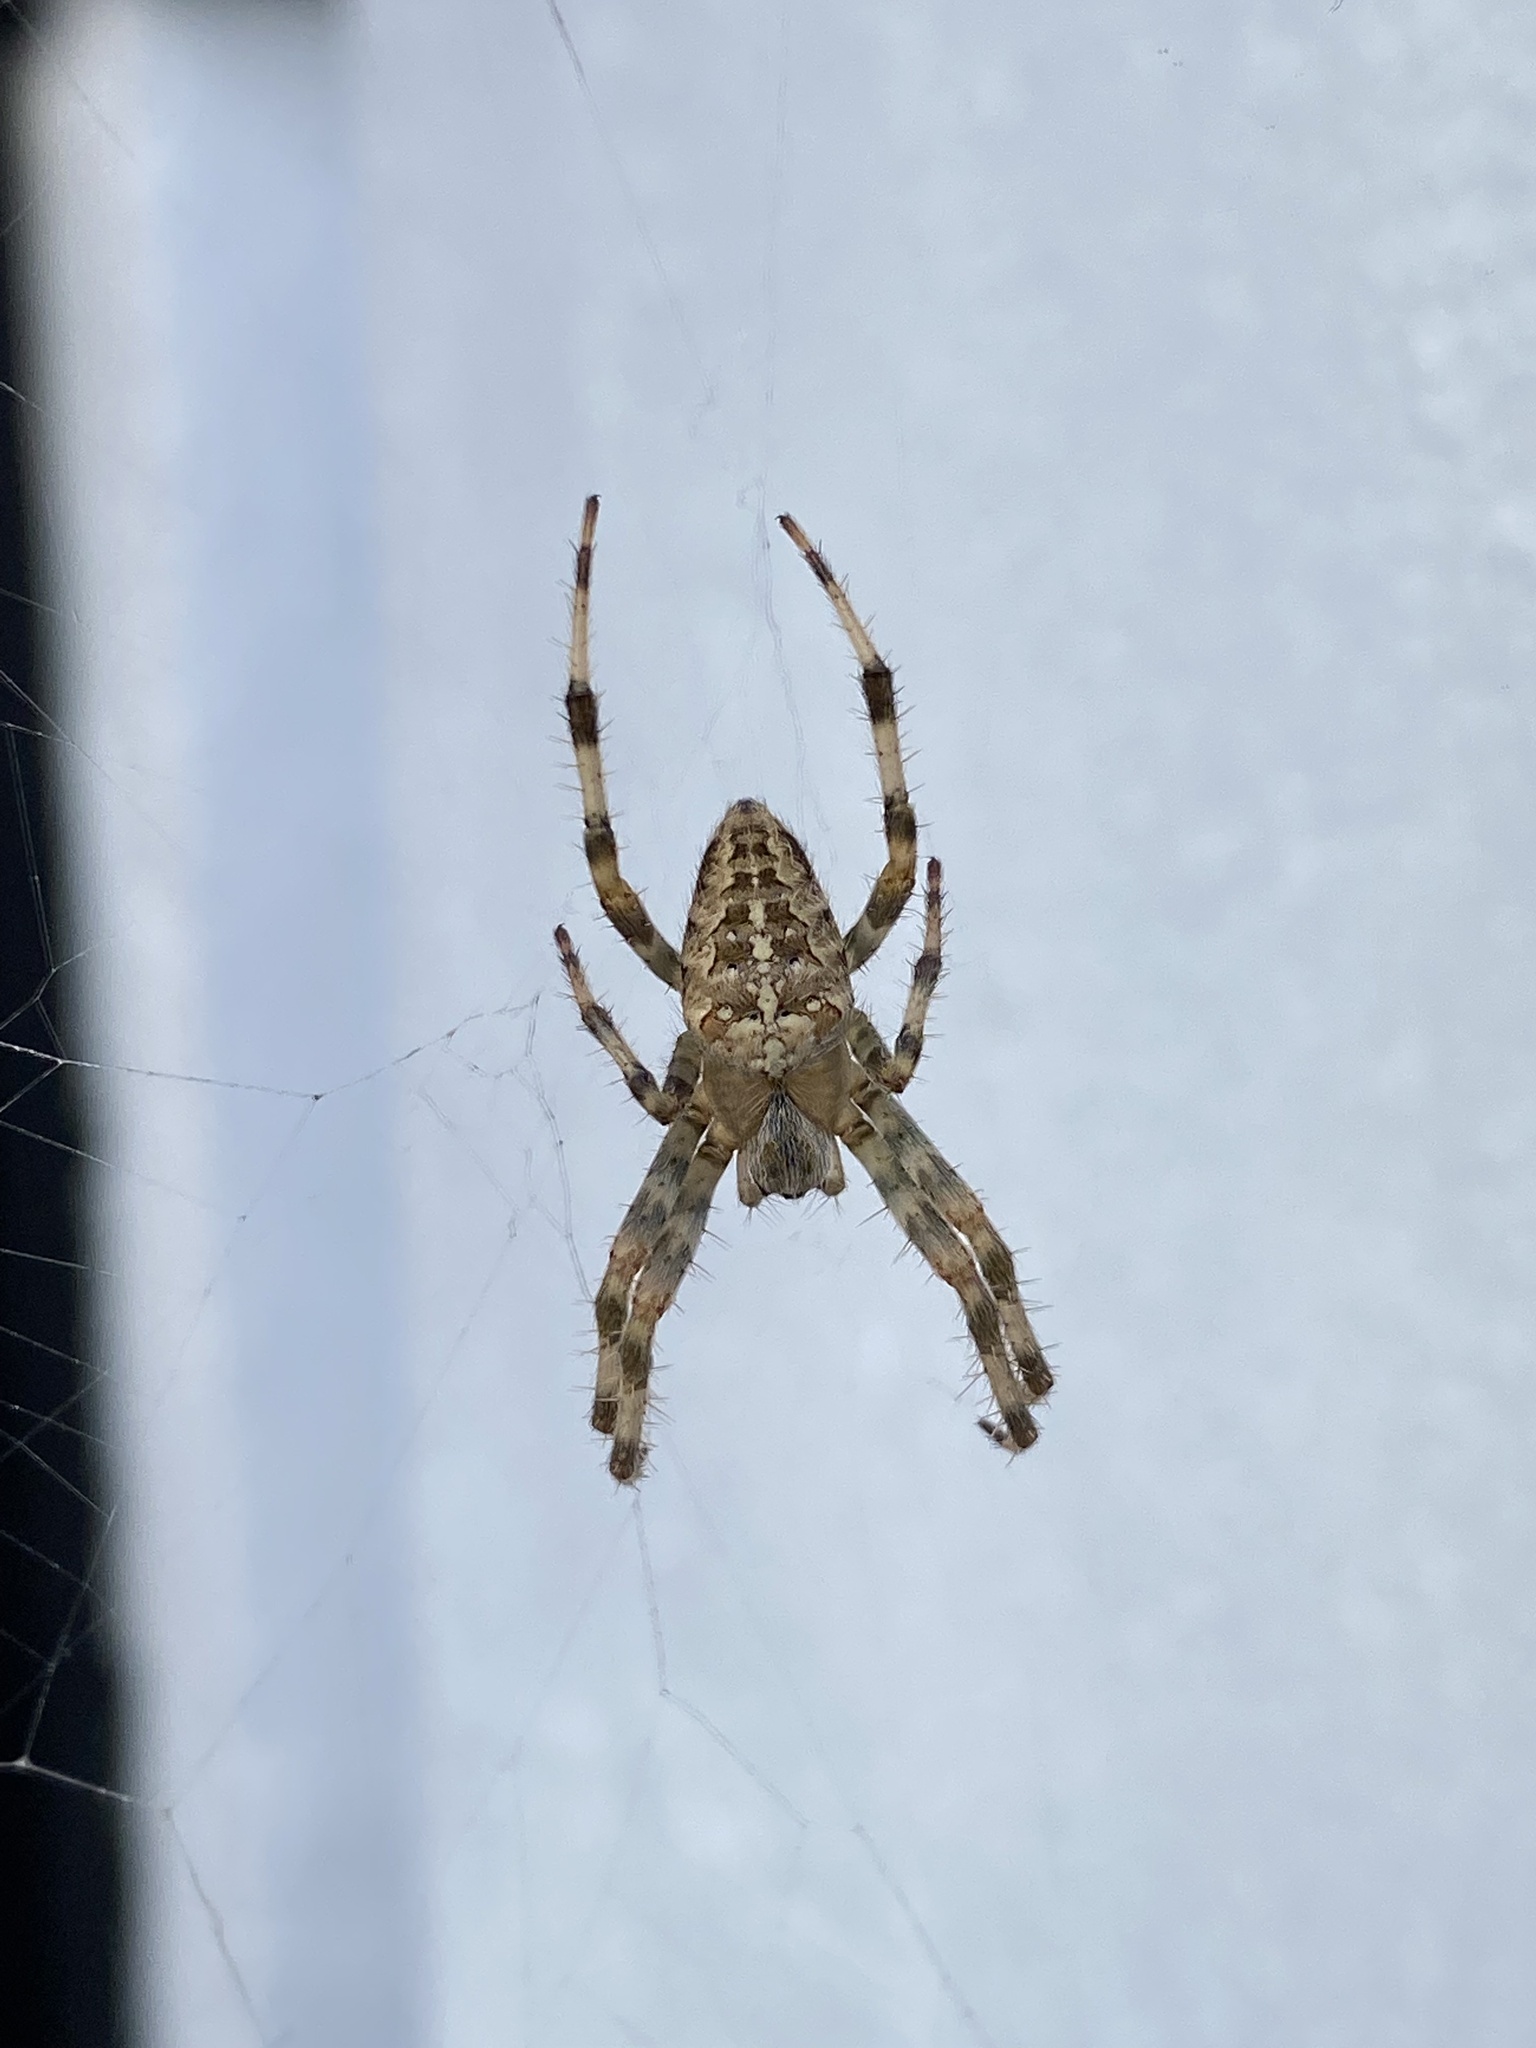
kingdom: Animalia
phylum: Arthropoda
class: Arachnida
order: Araneae
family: Araneidae
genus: Araneus
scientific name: Araneus diadematus
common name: Cross orbweaver
